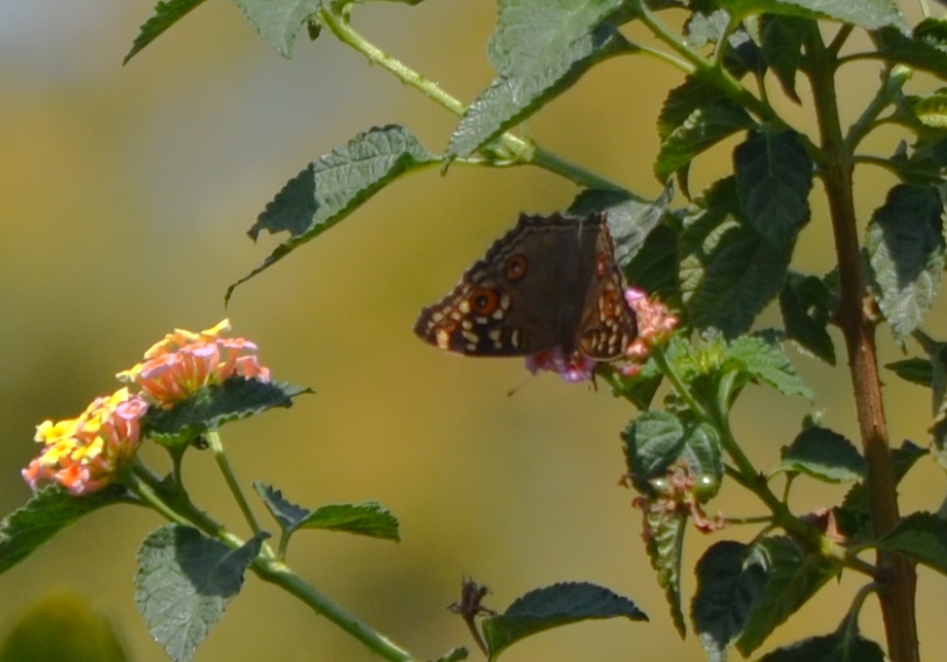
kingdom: Animalia
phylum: Arthropoda
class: Insecta
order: Lepidoptera
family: Nymphalidae
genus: Junonia
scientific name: Junonia lemonias
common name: Lemon pansy
